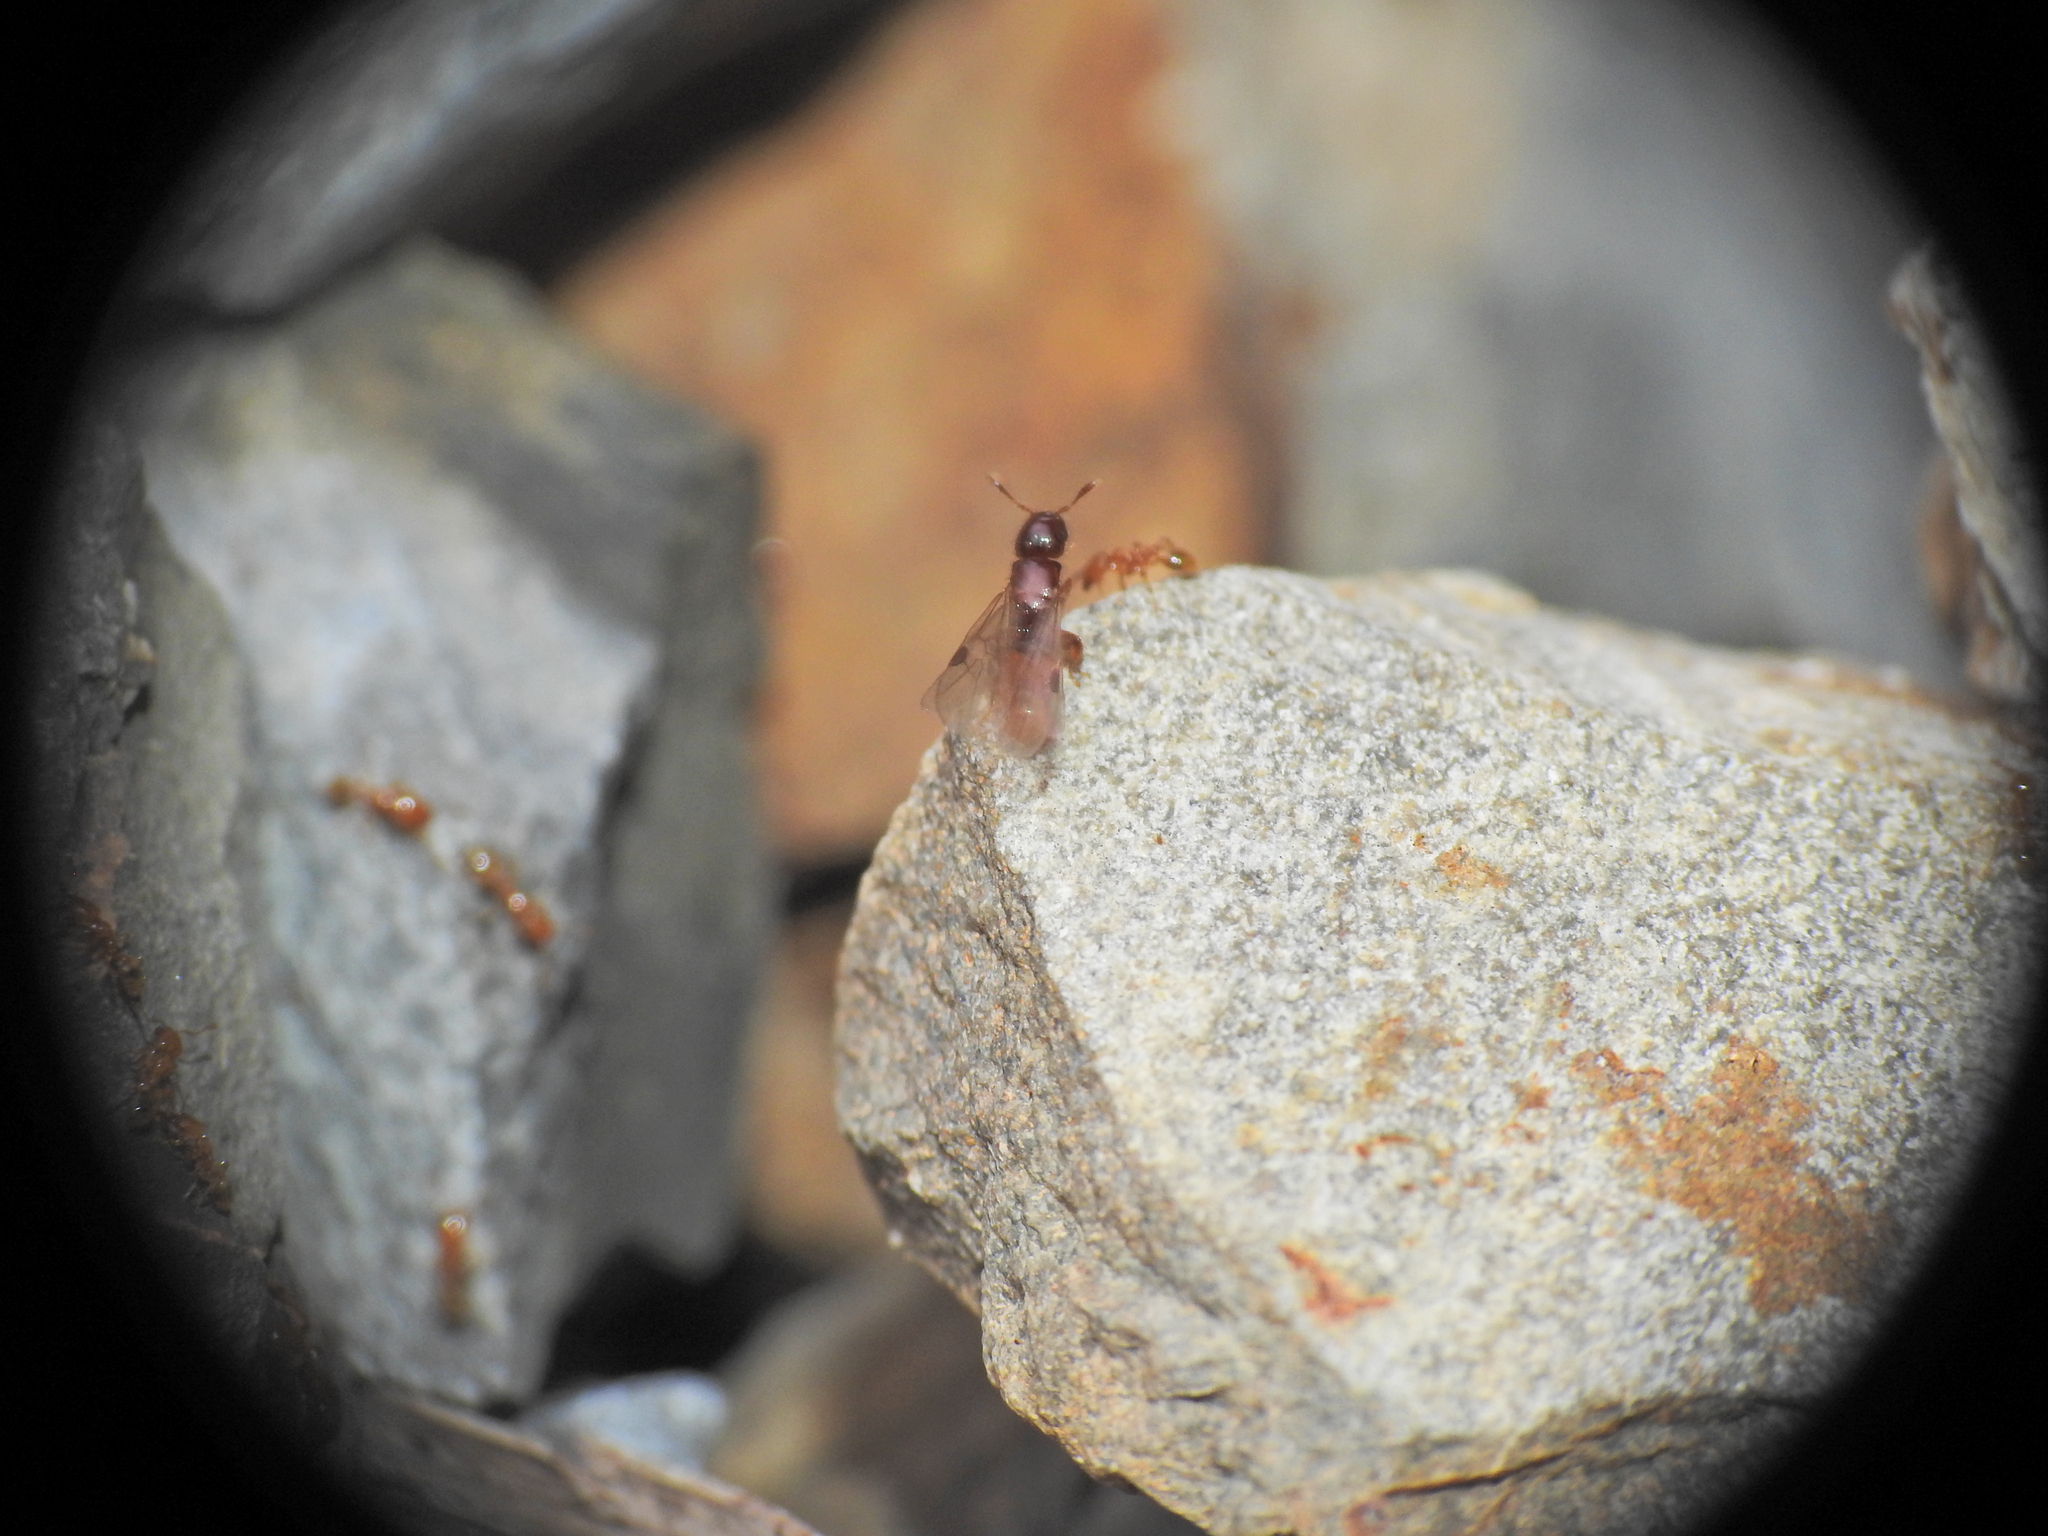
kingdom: Animalia
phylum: Arthropoda
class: Insecta
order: Hymenoptera
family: Formicidae
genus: Pheidole
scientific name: Pheidole
